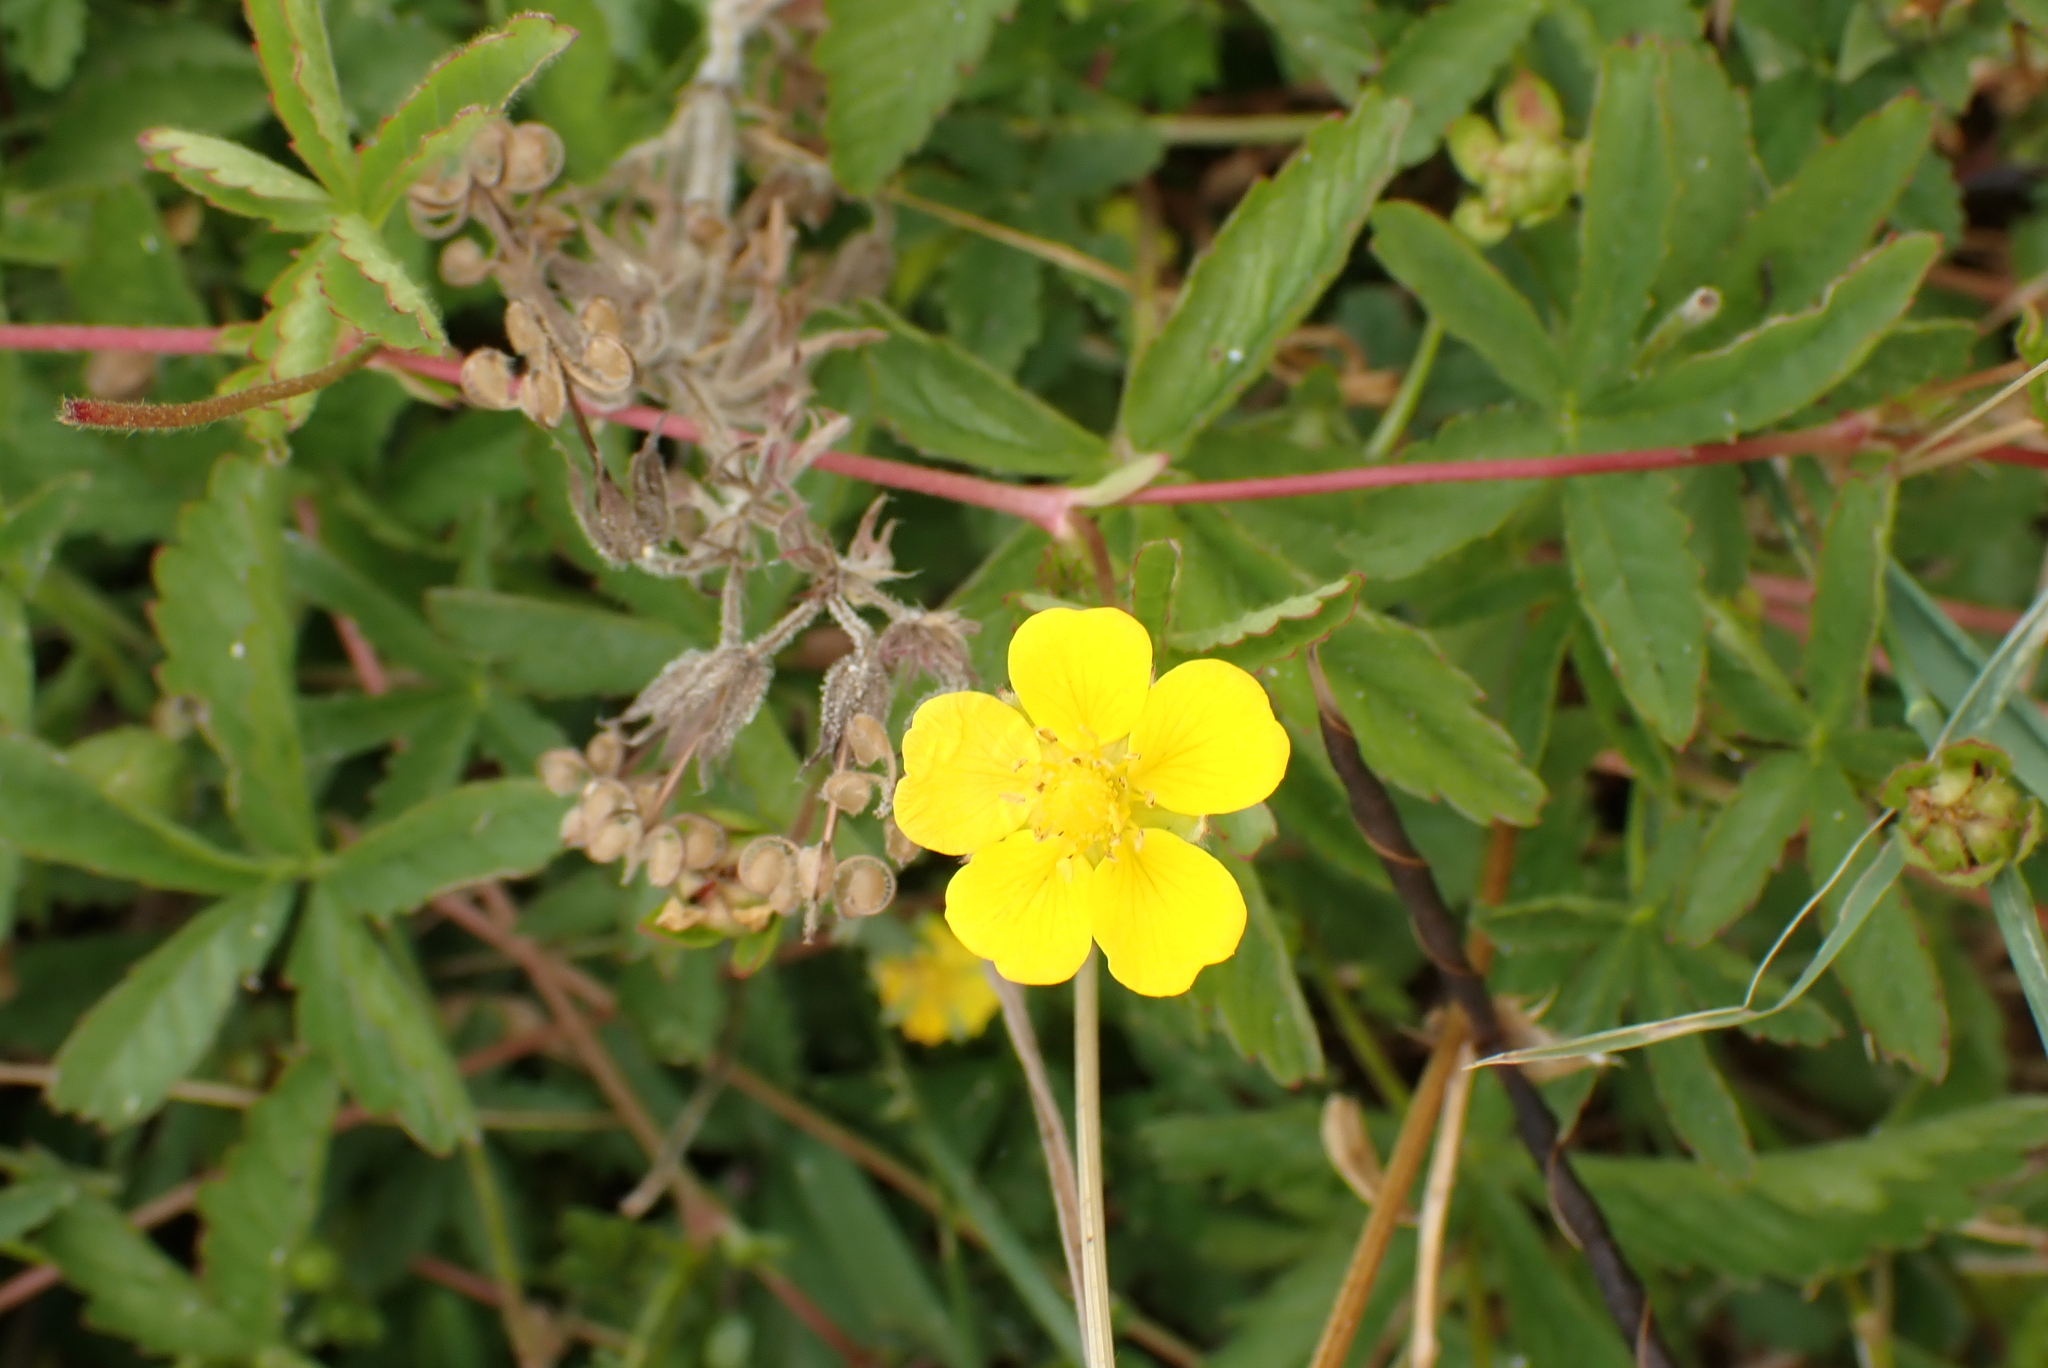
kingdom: Plantae
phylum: Tracheophyta
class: Magnoliopsida
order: Rosales
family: Rosaceae
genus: Potentilla
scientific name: Potentilla reptans
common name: Creeping cinquefoil
